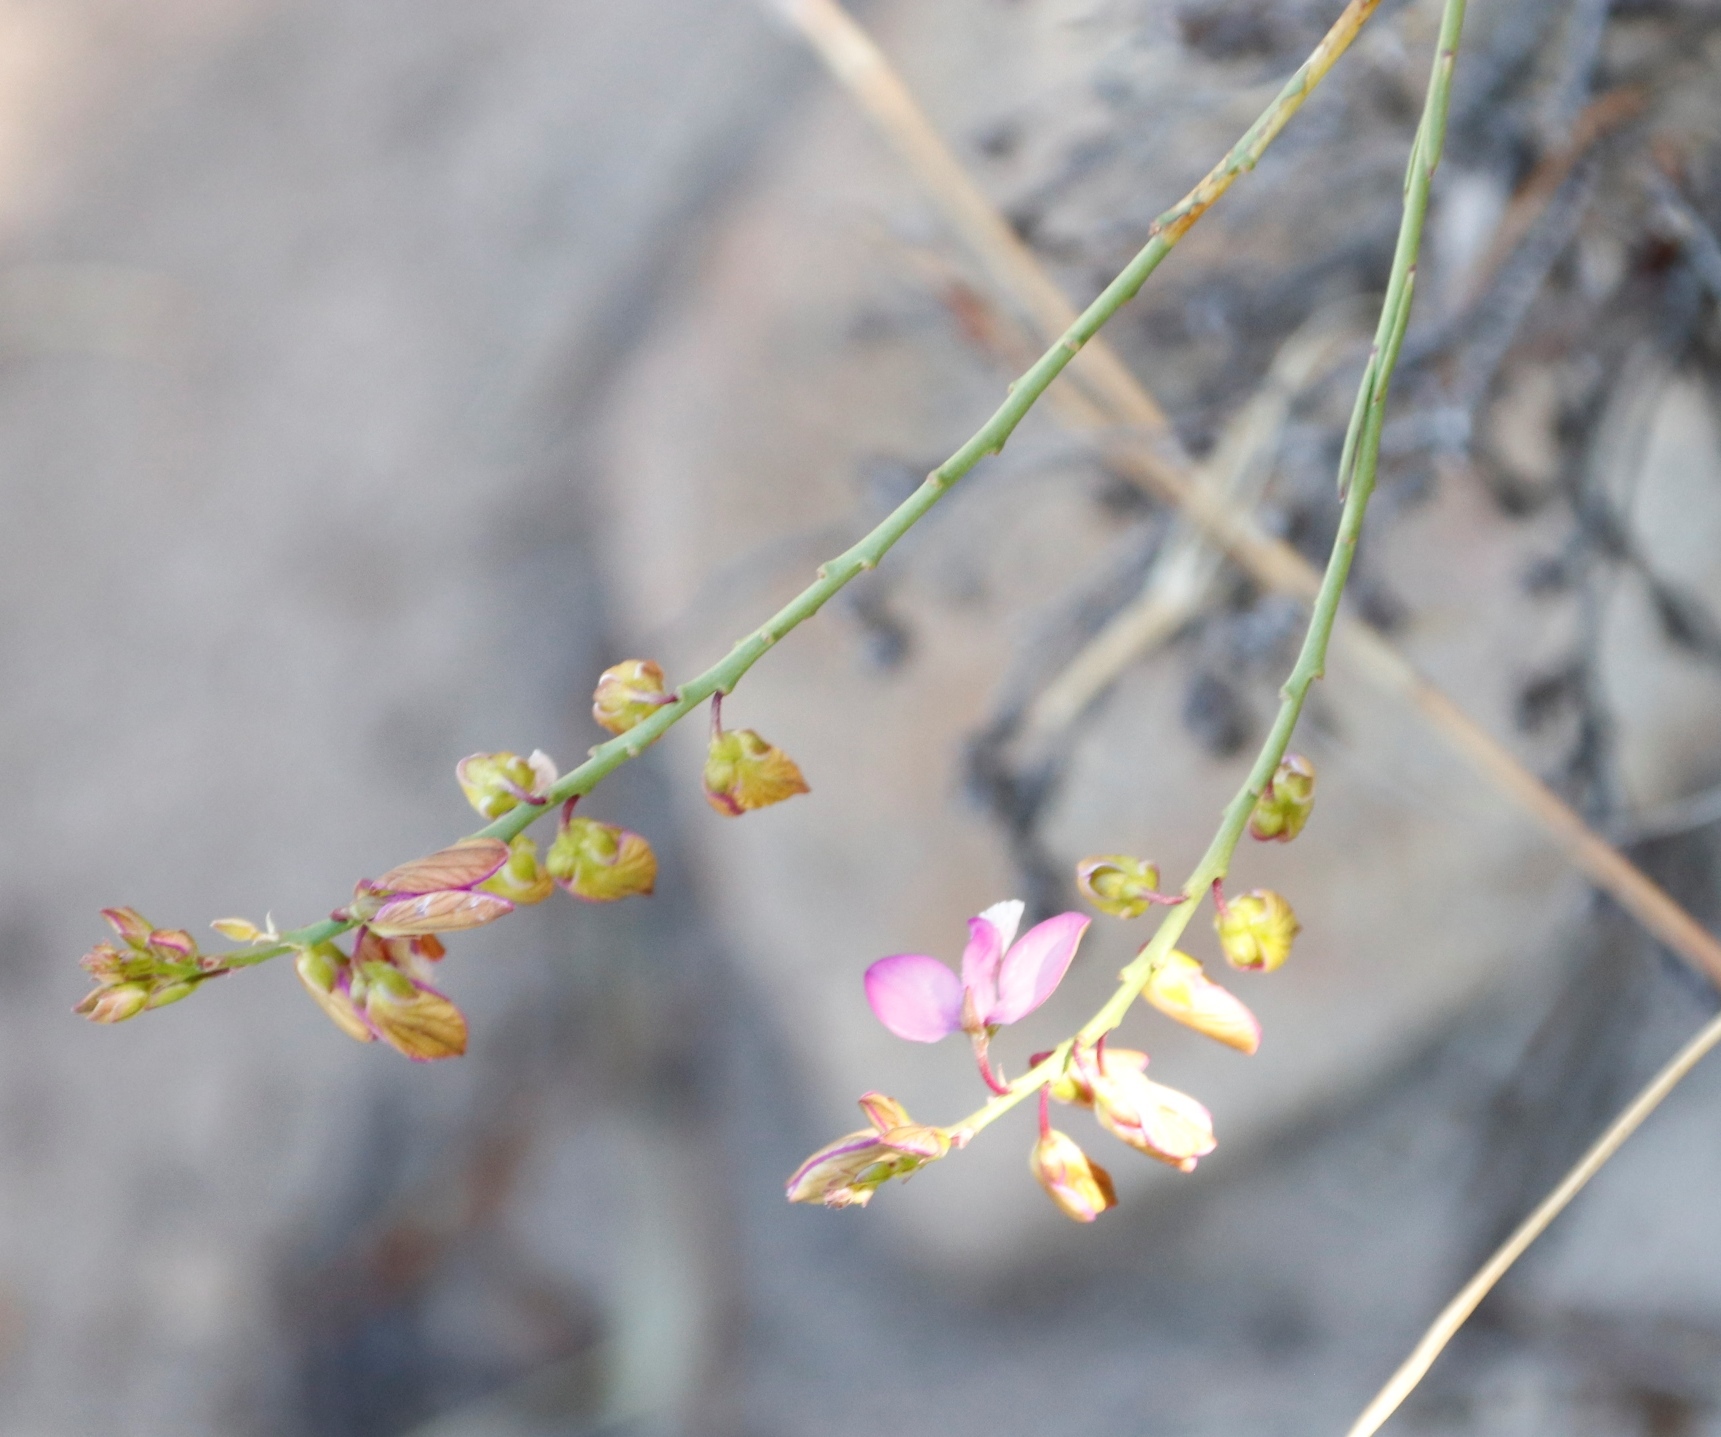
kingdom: Plantae
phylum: Tracheophyta
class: Magnoliopsida
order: Fabales
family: Polygalaceae
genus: Polygala
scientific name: Polygala garcini
